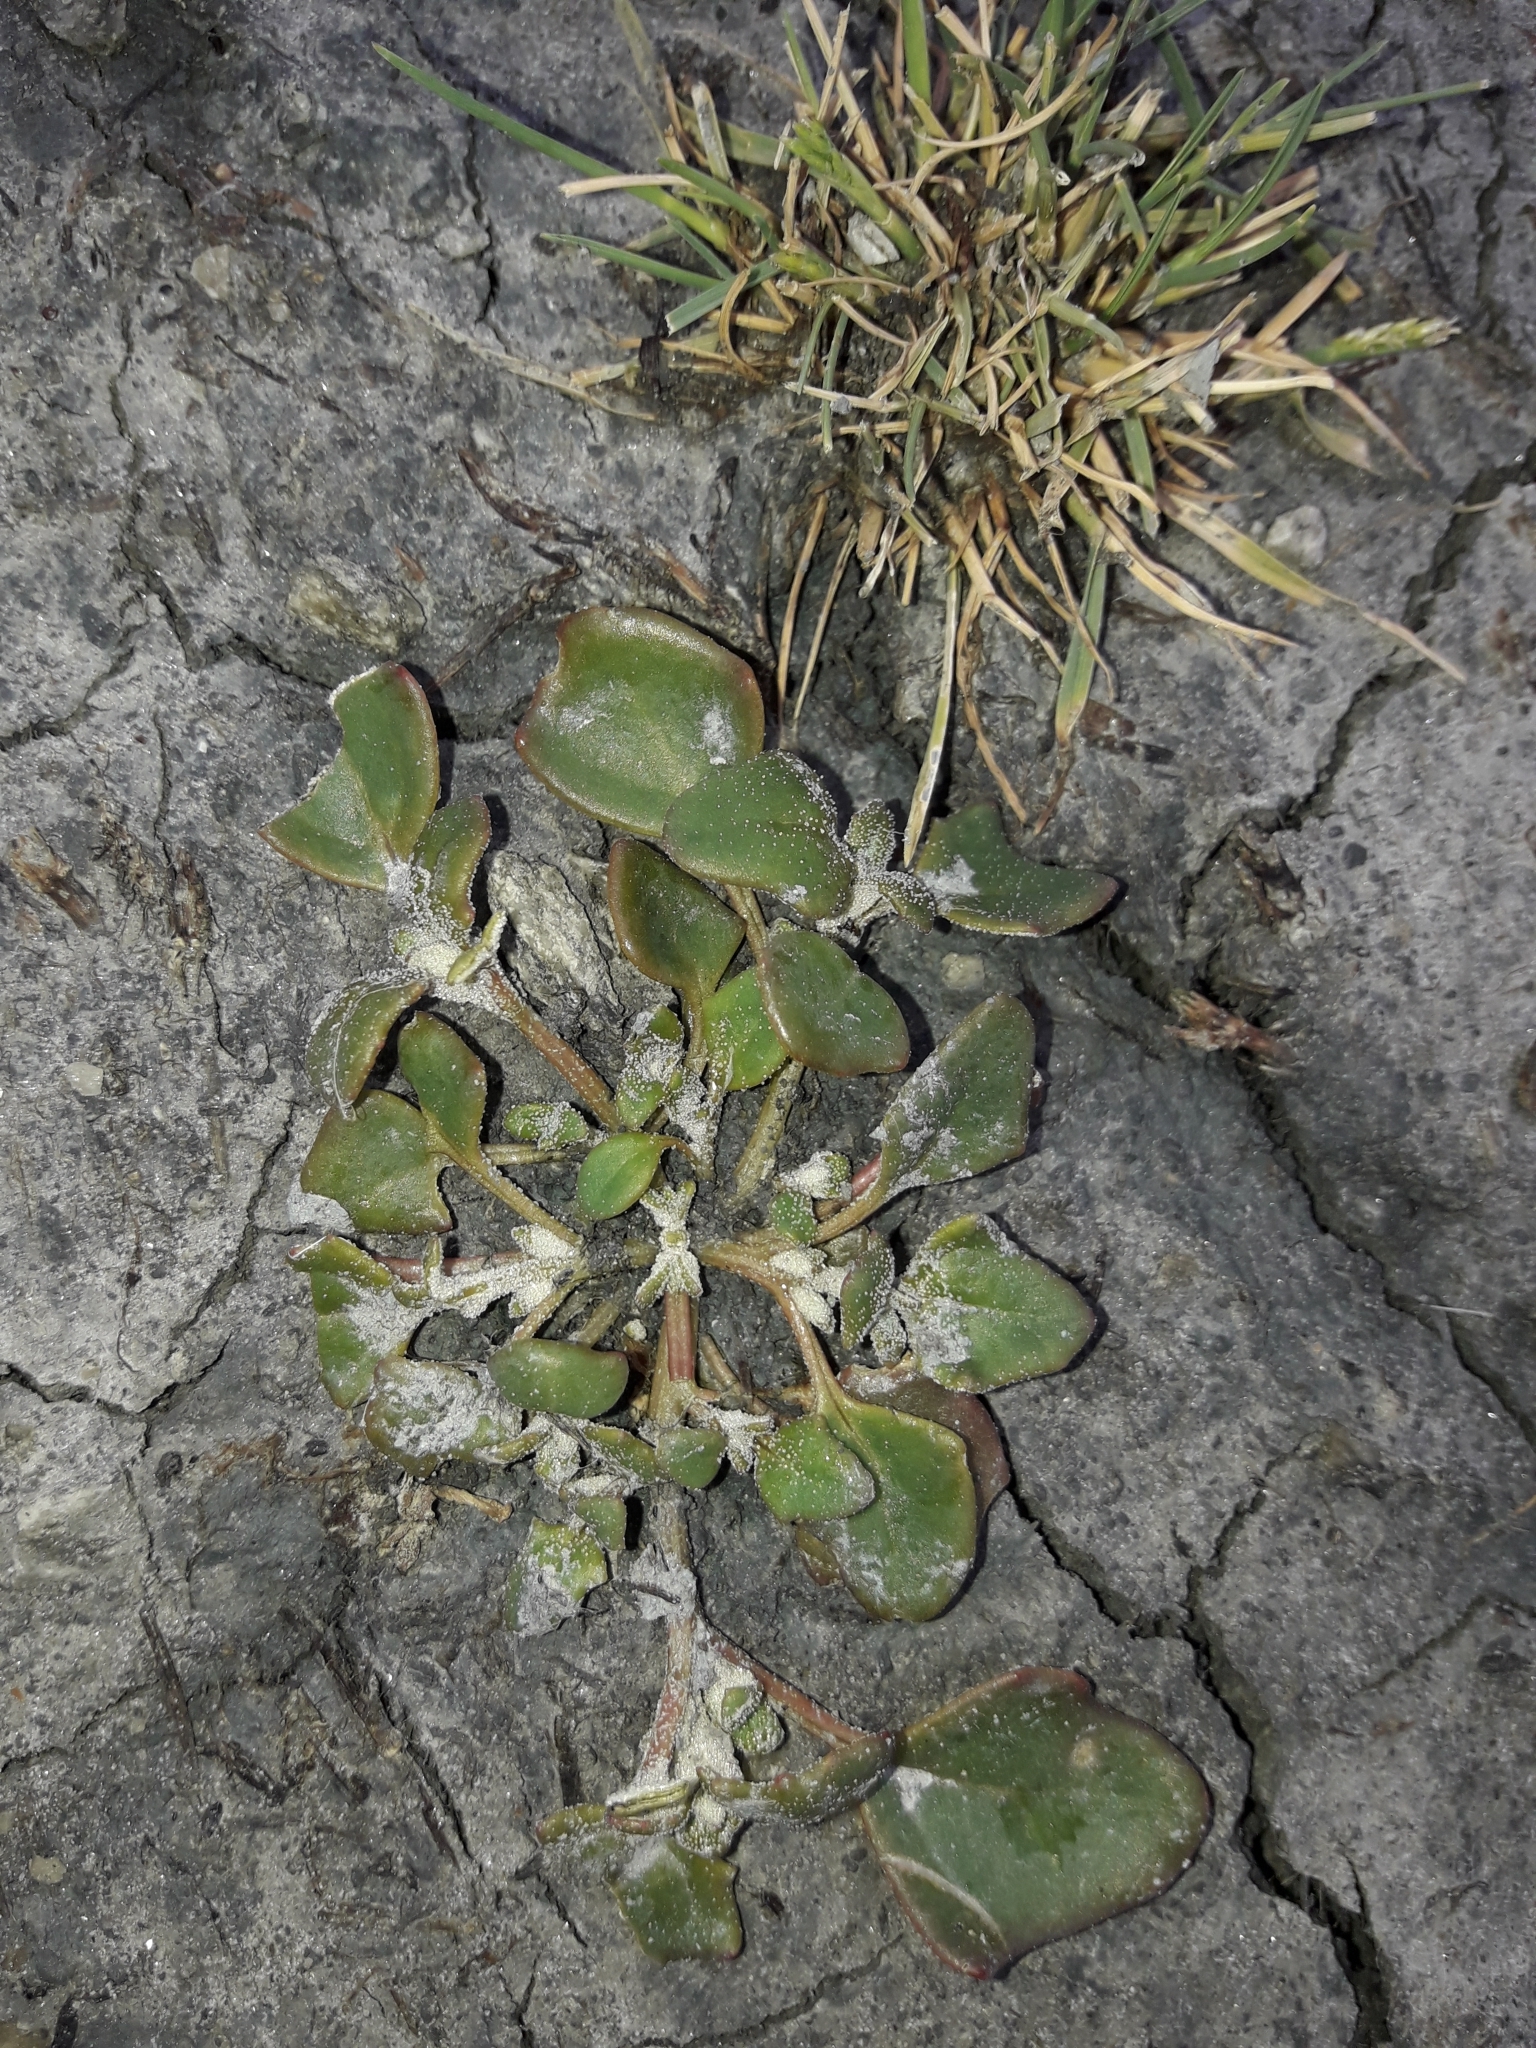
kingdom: Plantae
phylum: Tracheophyta
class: Magnoliopsida
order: Caryophyllales
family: Amaranthaceae
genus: Oxybasis
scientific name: Oxybasis ambigua
